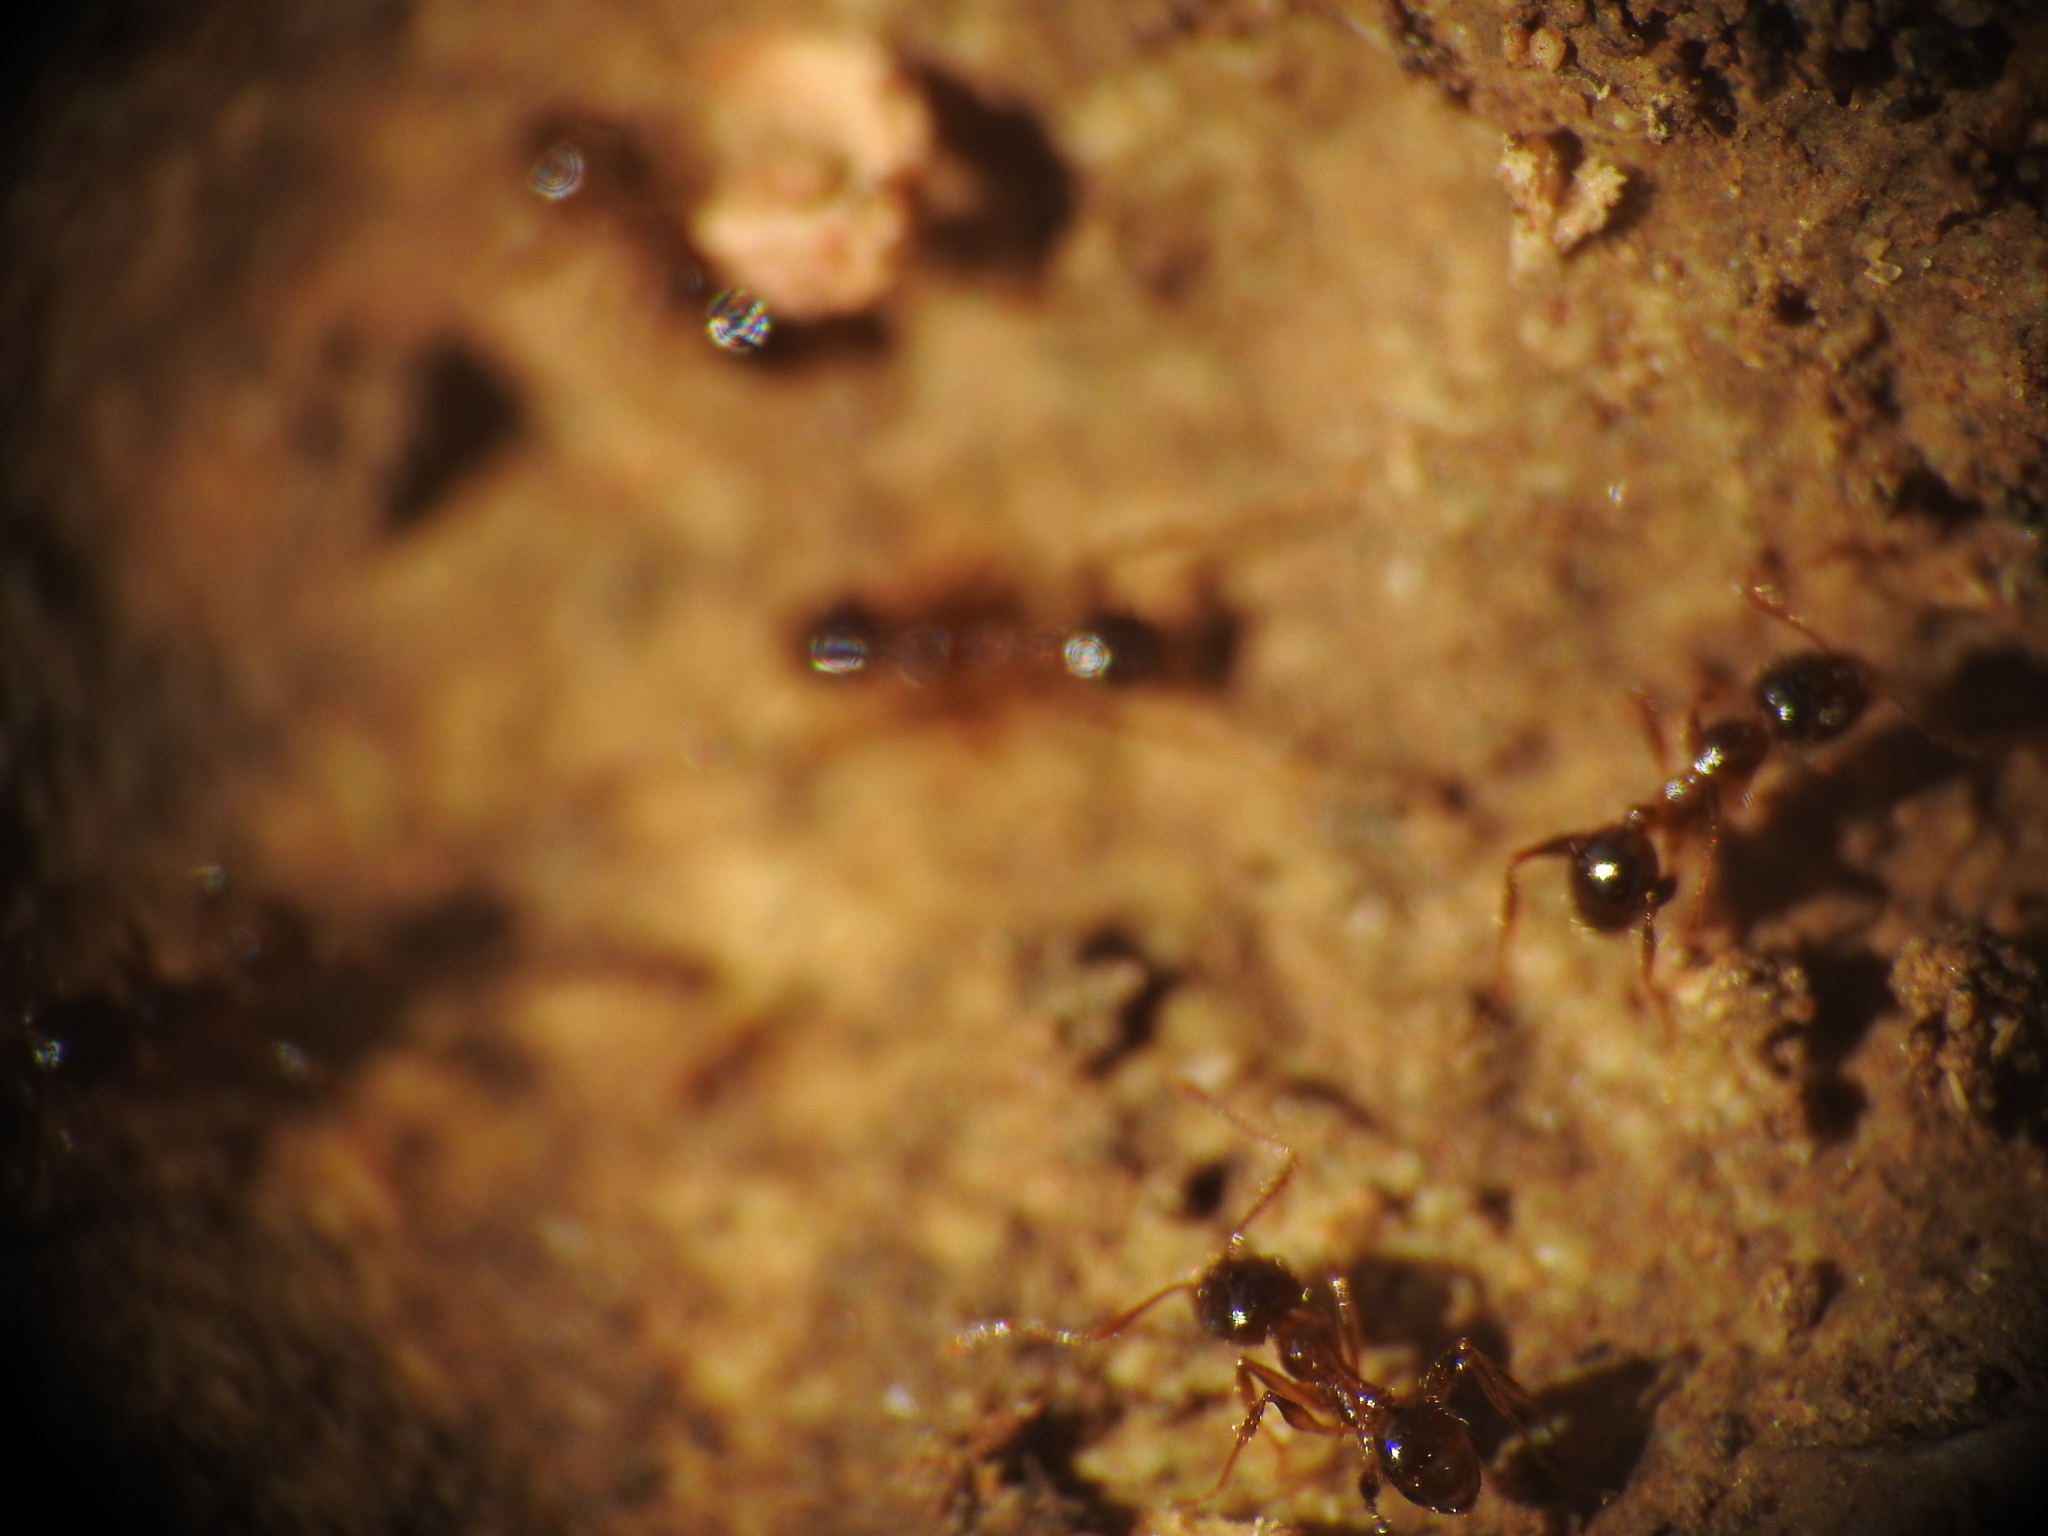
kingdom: Animalia
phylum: Arthropoda
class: Insecta
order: Hymenoptera
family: Formicidae
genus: Pheidole
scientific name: Pheidole pallidula
